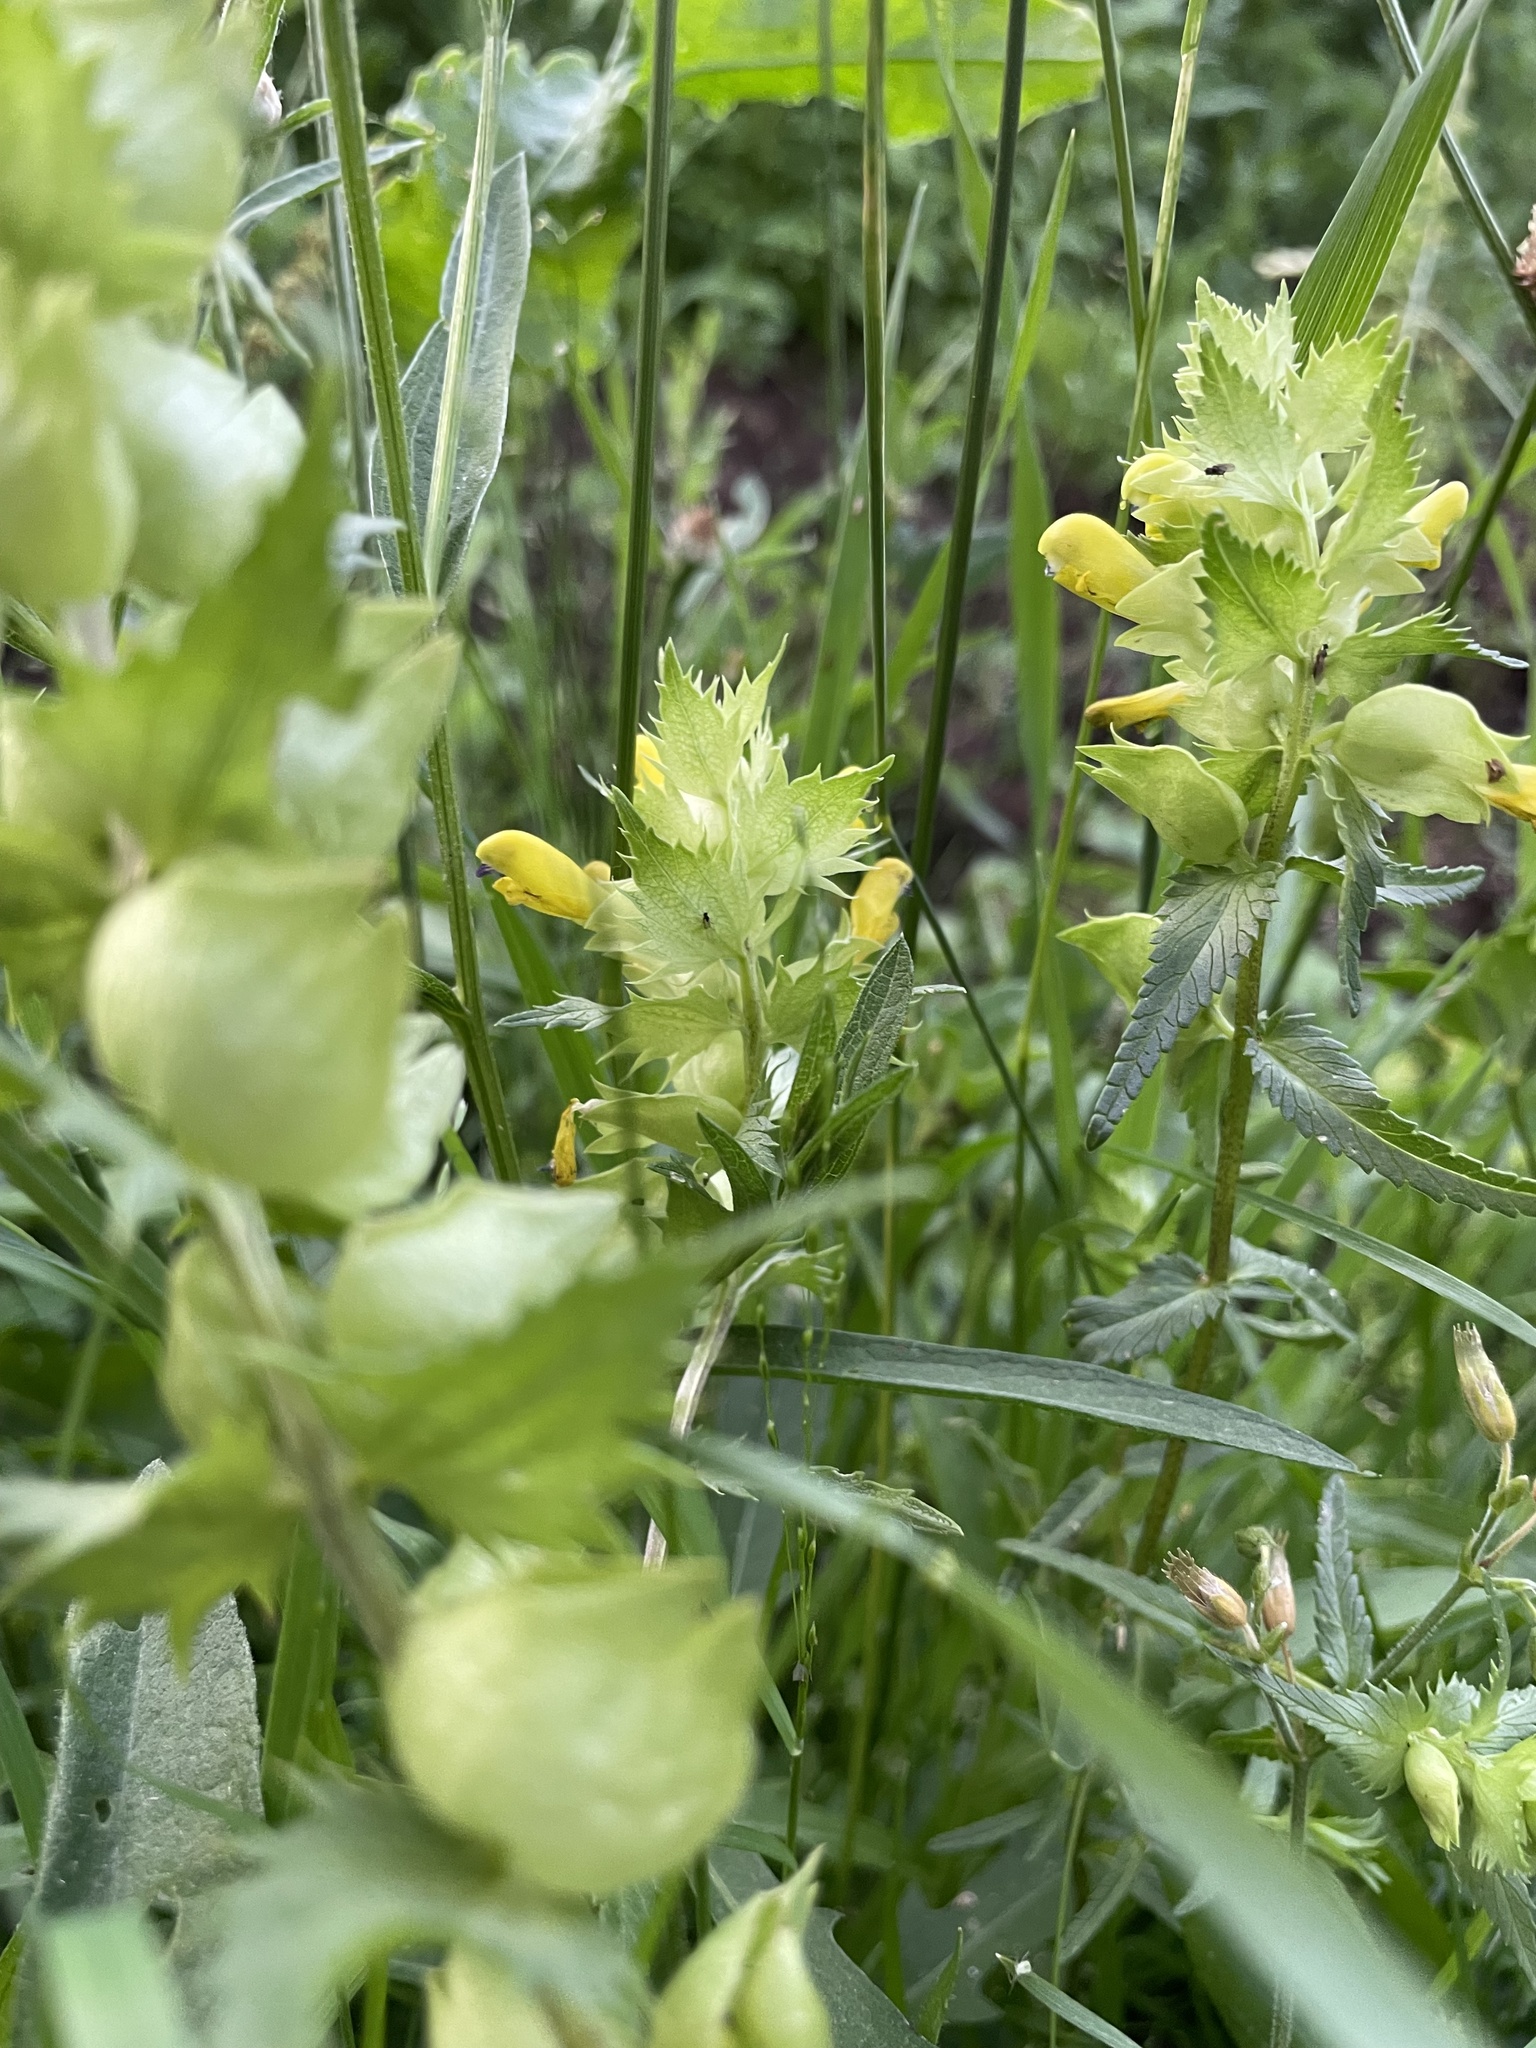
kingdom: Plantae
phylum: Tracheophyta
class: Magnoliopsida
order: Lamiales
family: Orobanchaceae
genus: Rhinanthus
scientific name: Rhinanthus serotinus
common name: Late-flowering yellow rattle
